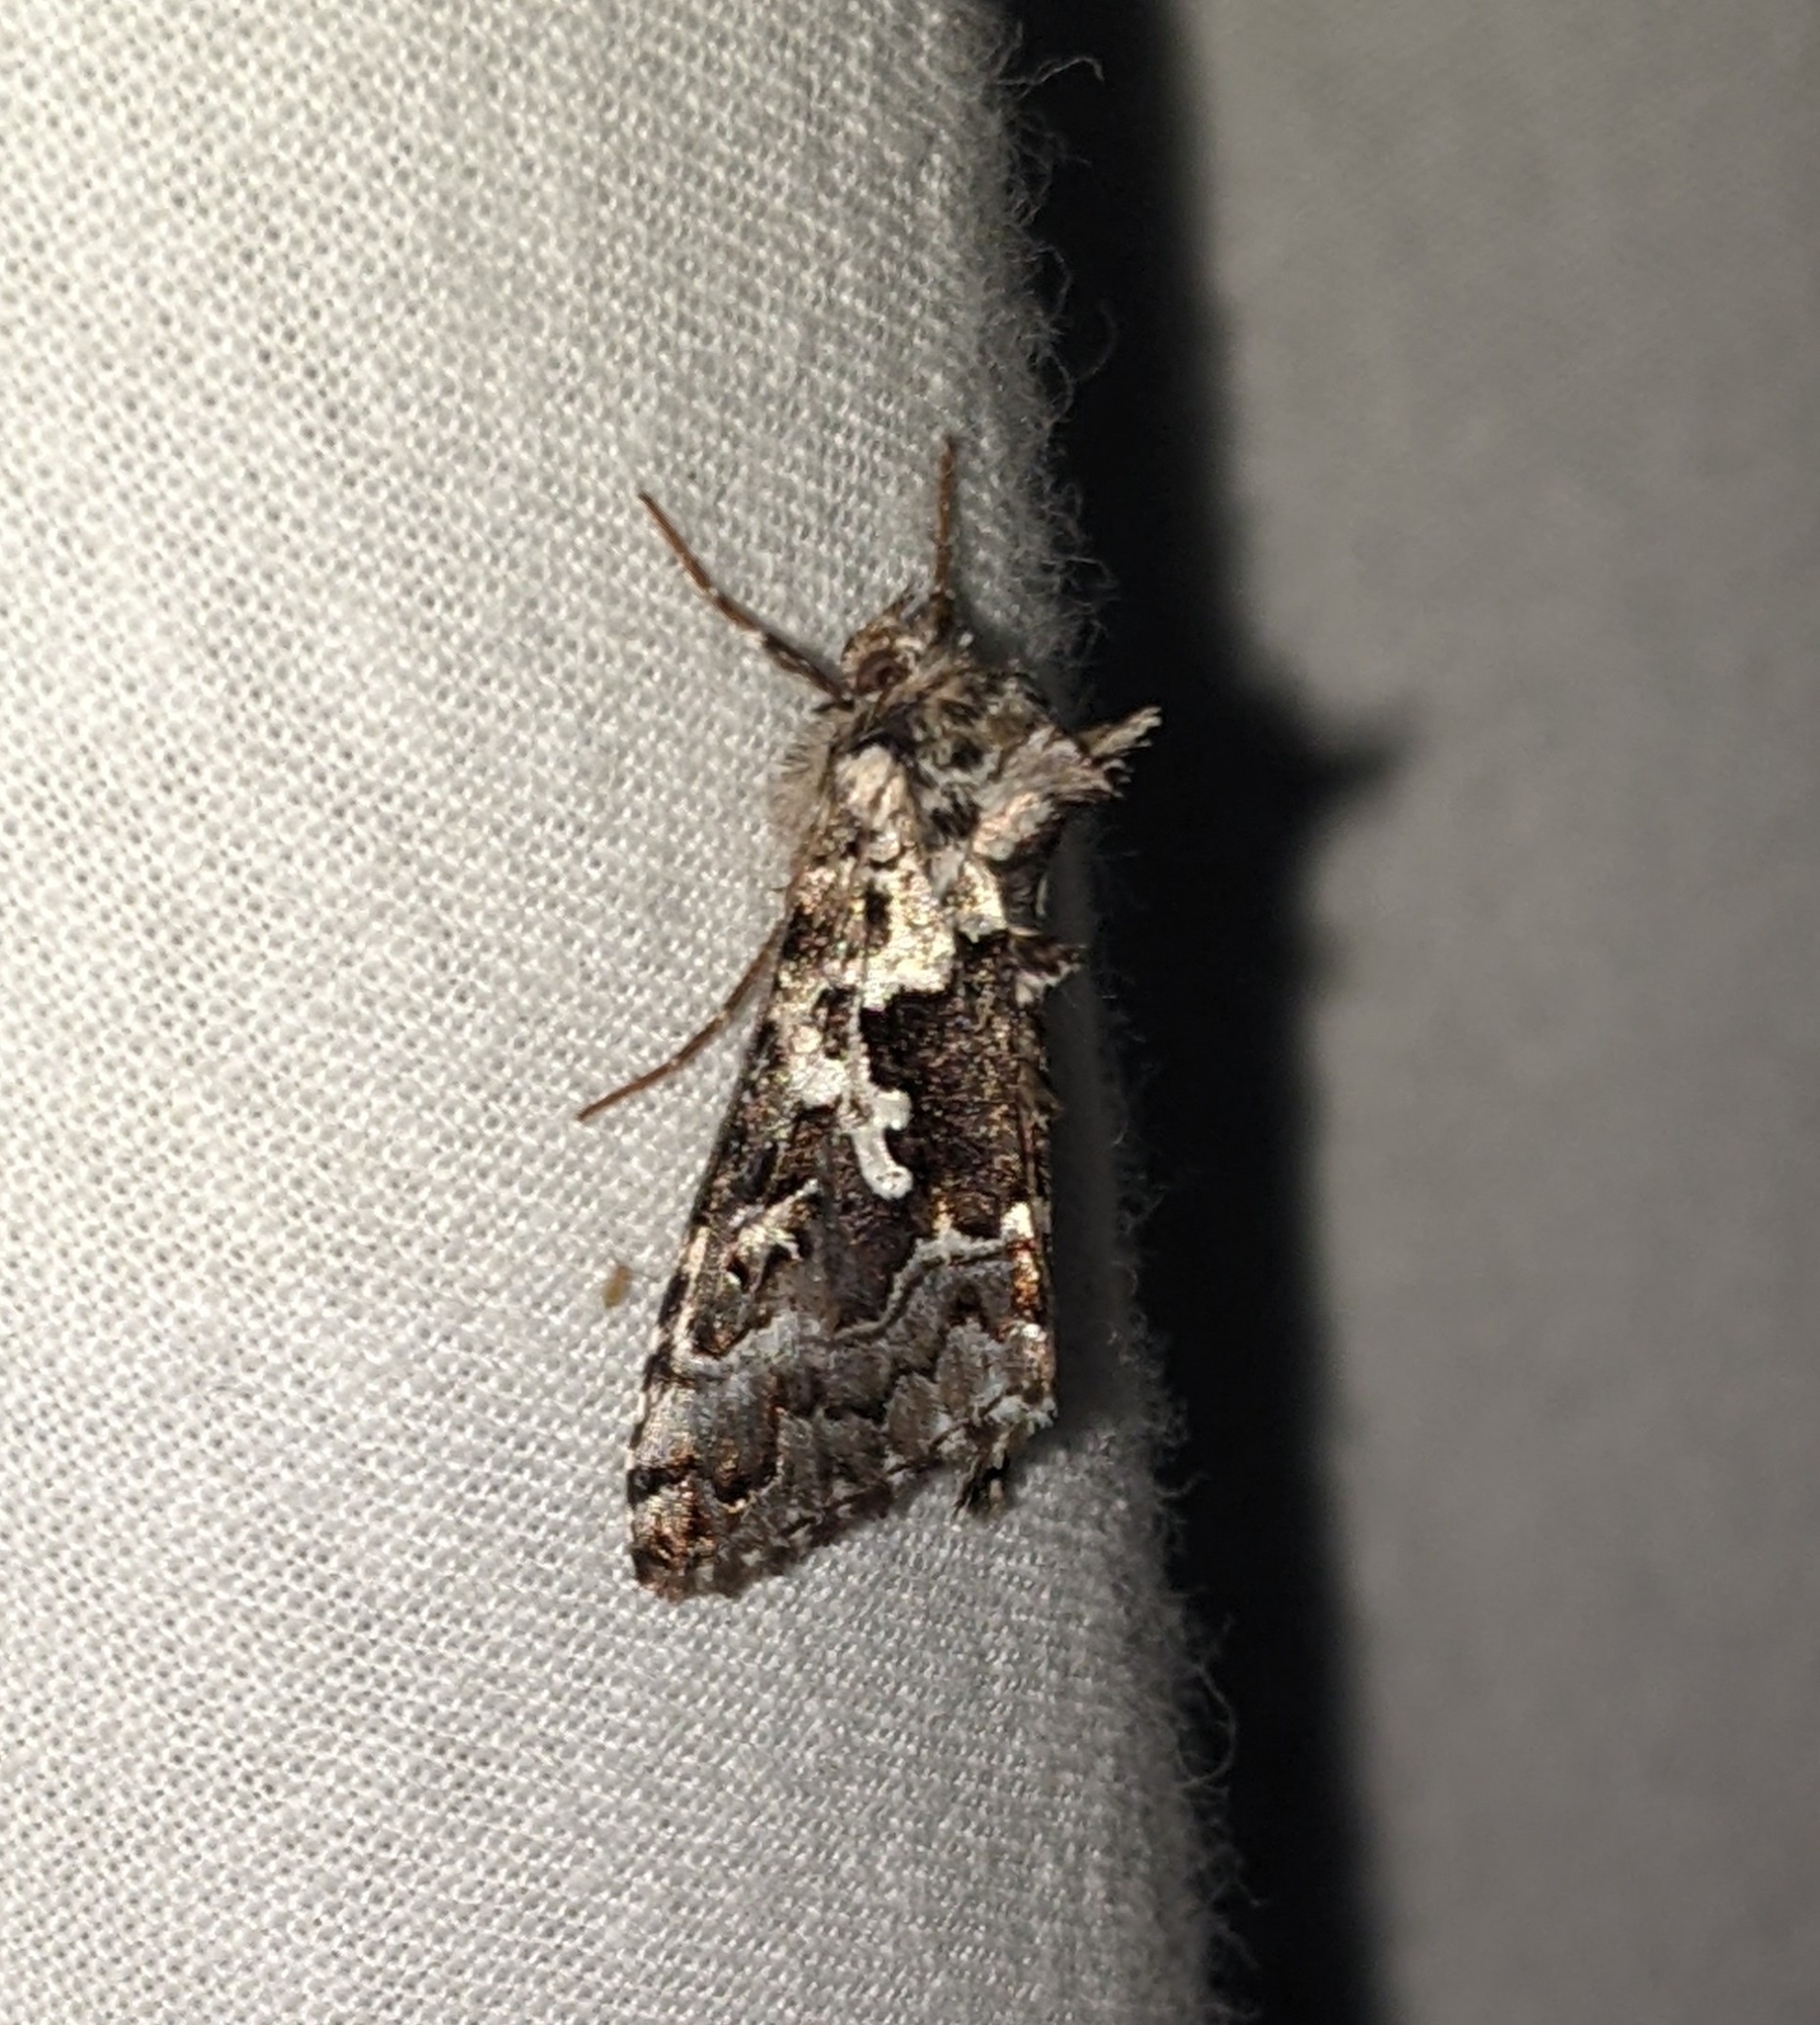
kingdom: Animalia
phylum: Arthropoda
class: Insecta
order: Lepidoptera
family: Noctuidae
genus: Syngrapha
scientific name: Syngrapha rectangula
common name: Angulated cutworm
